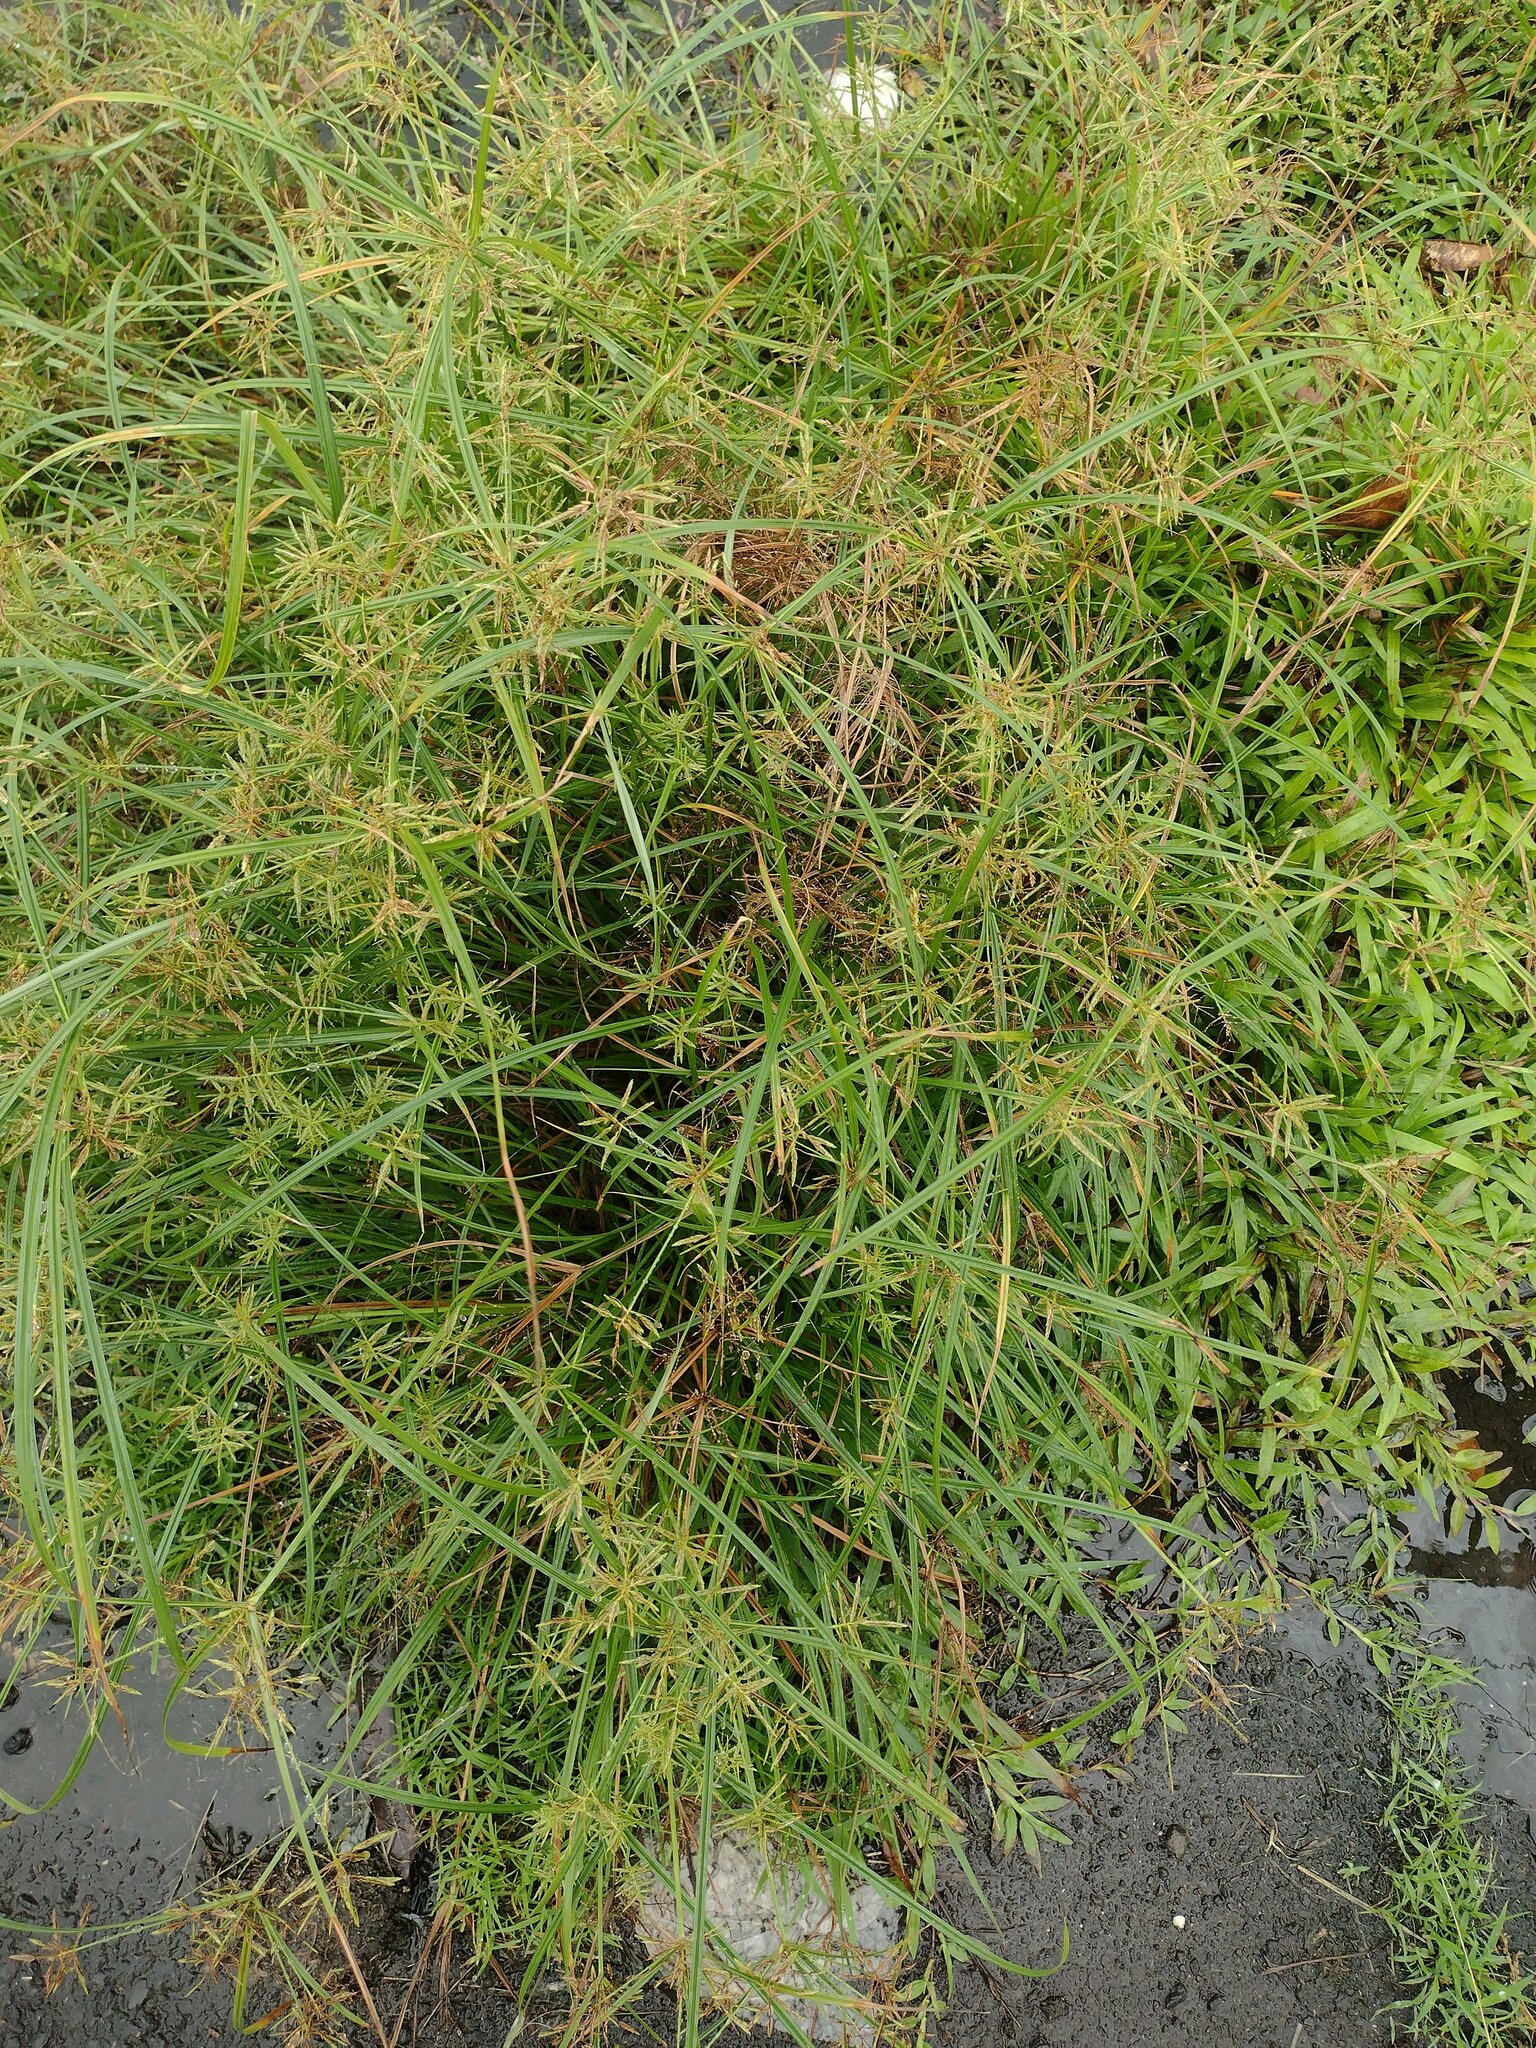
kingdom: Plantae
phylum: Tracheophyta
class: Liliopsida
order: Poales
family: Cyperaceae
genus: Cyperus
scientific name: Cyperus sphacelatus
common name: Roadside flatsedge
